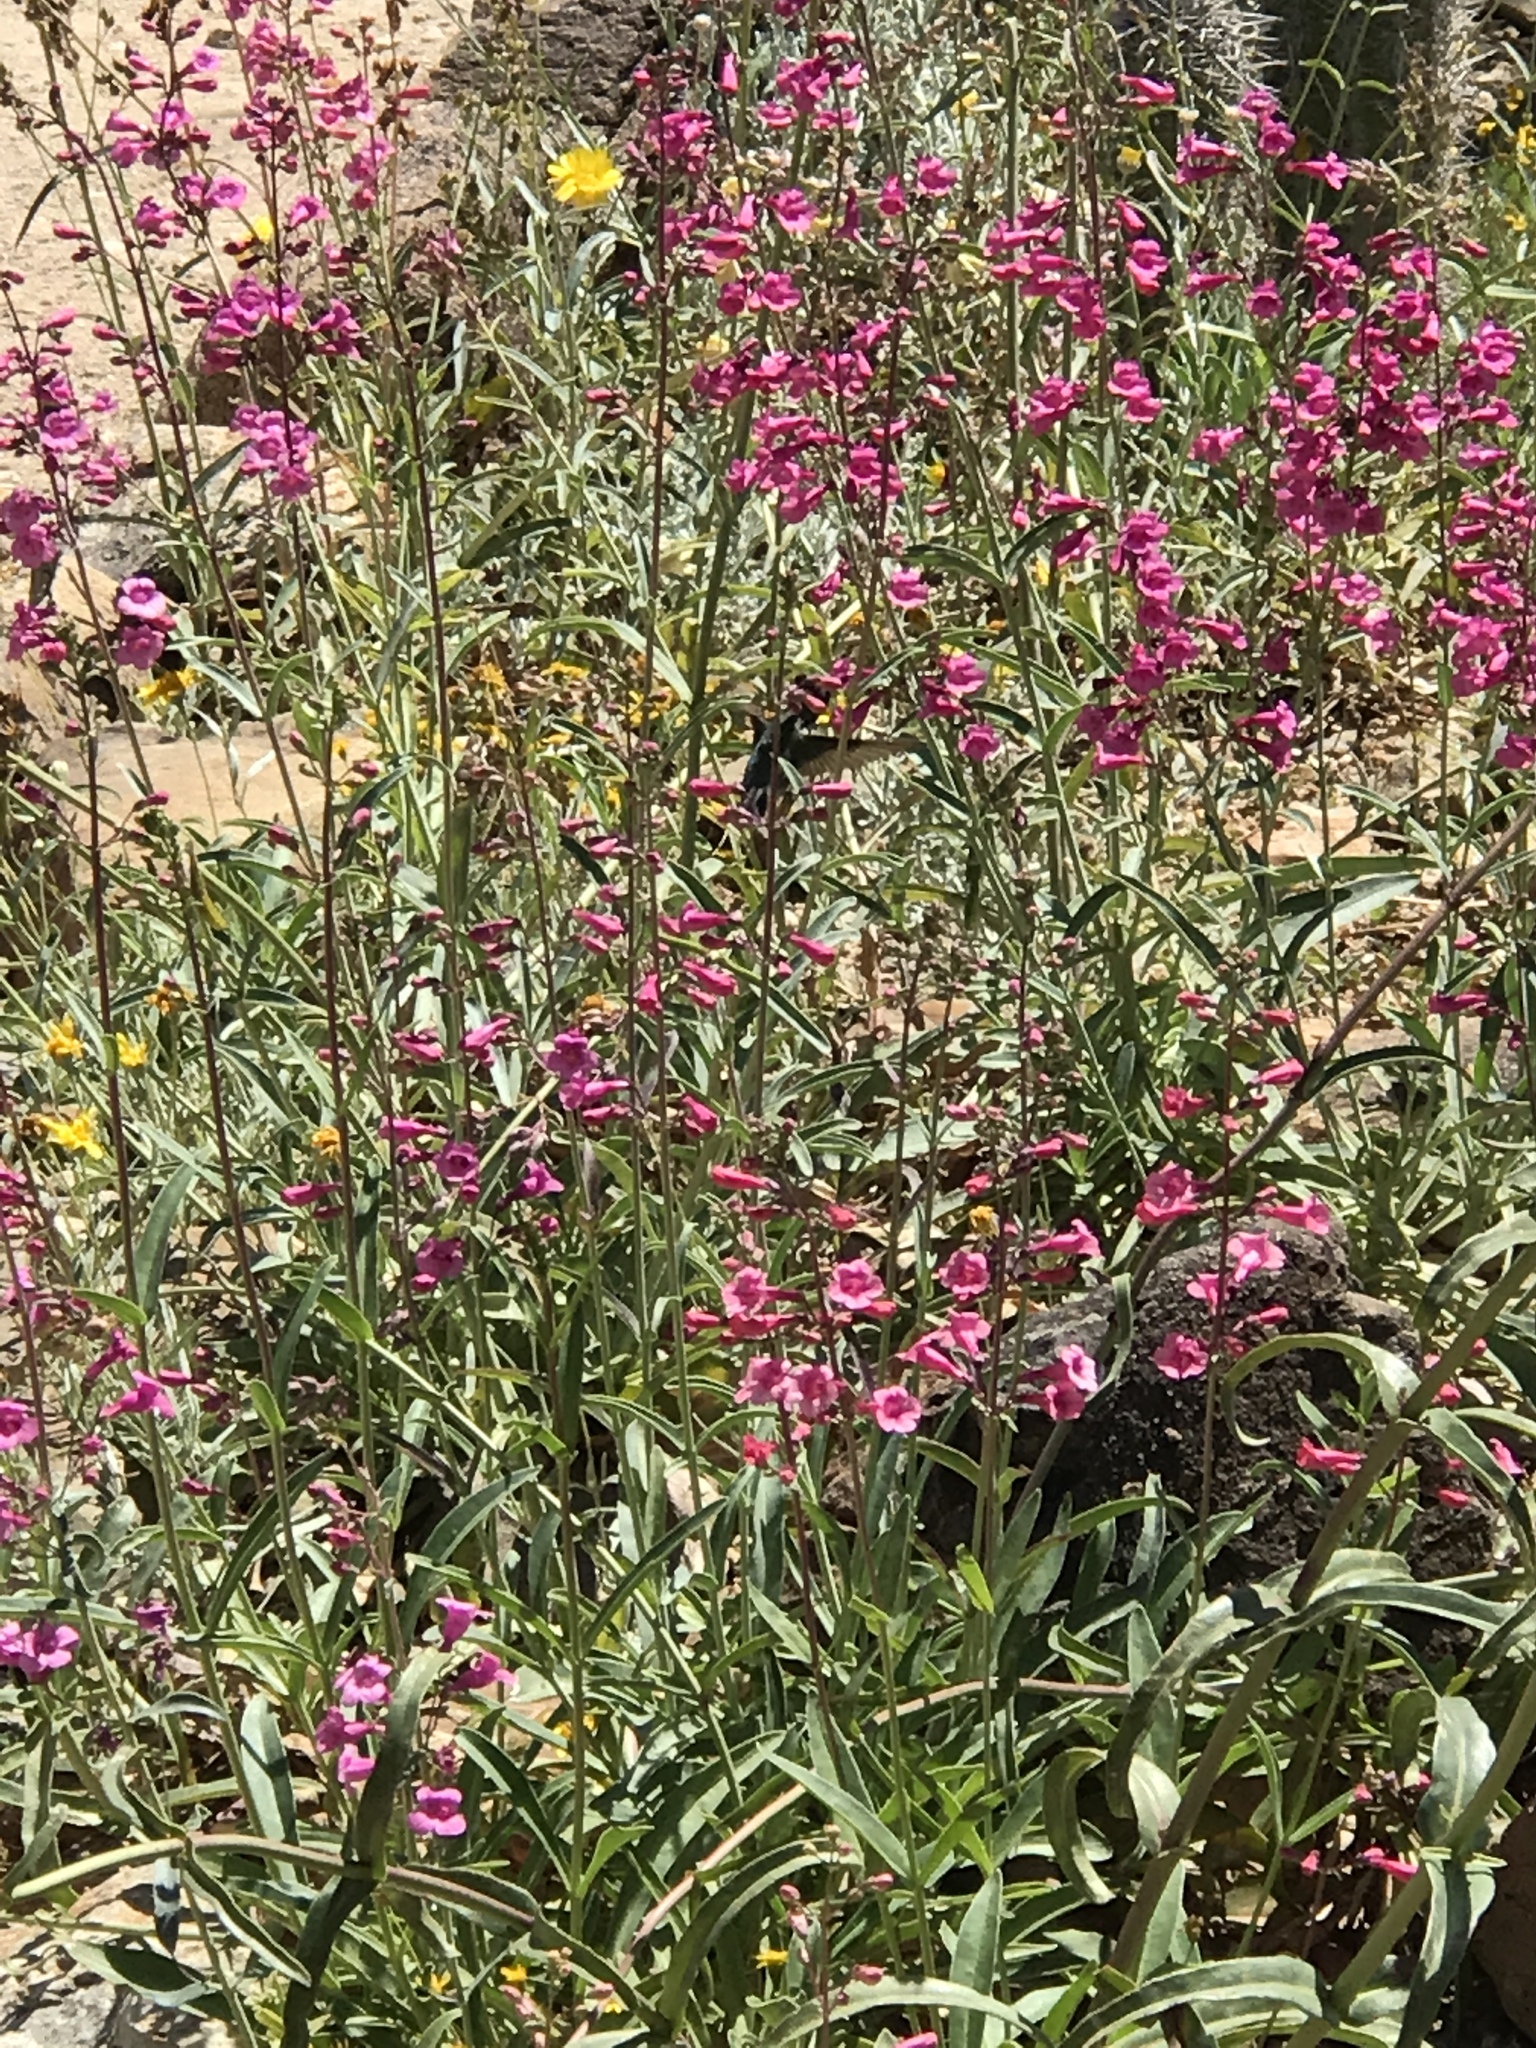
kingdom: Animalia
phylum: Chordata
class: Aves
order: Apodiformes
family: Trochilidae
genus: Calypte
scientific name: Calypte costae
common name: Costa's hummingbird
